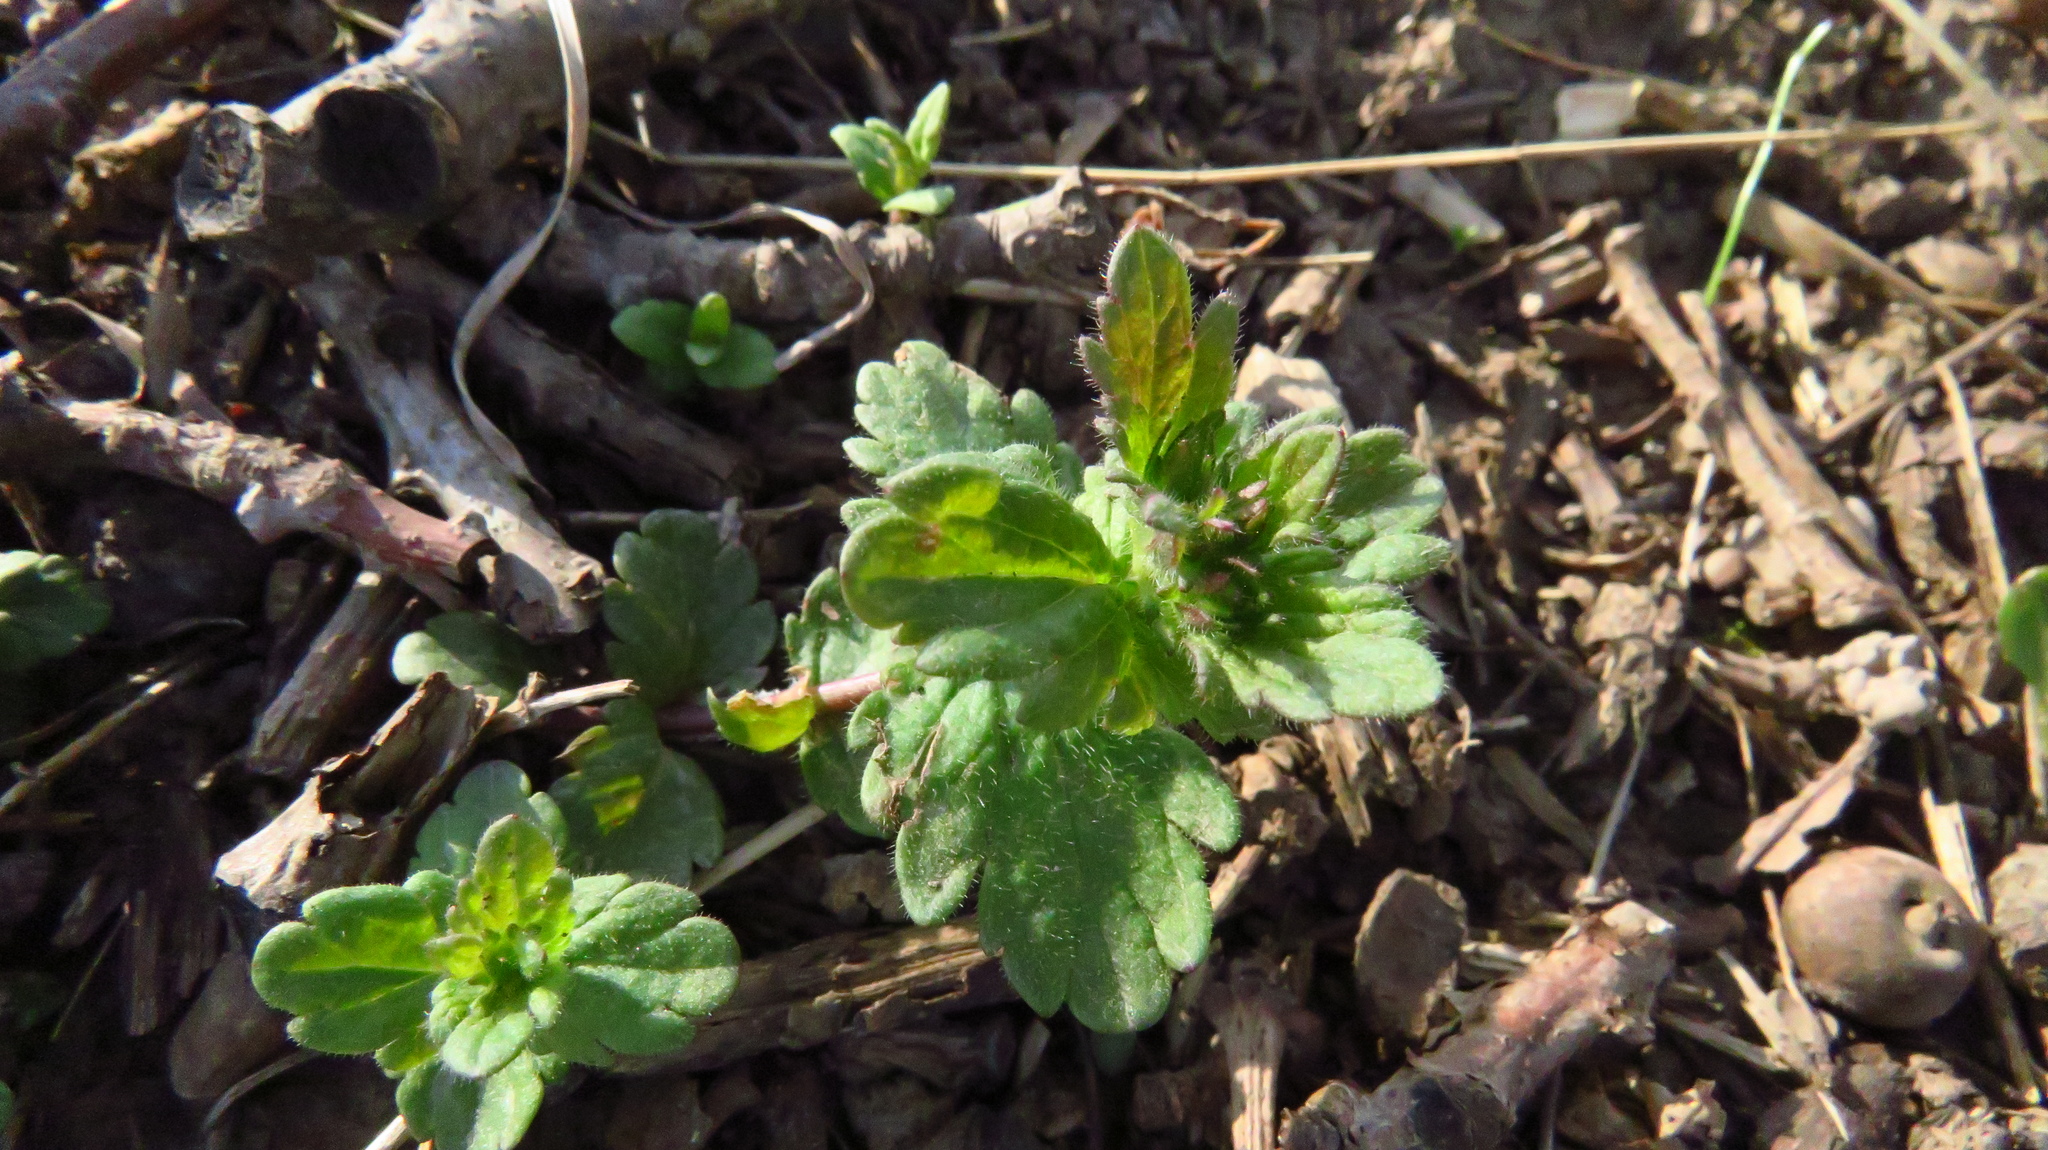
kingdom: Plantae
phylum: Tracheophyta
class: Magnoliopsida
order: Lamiales
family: Plantaginaceae
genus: Veronica
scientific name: Veronica chamaedrys
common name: Germander speedwell
